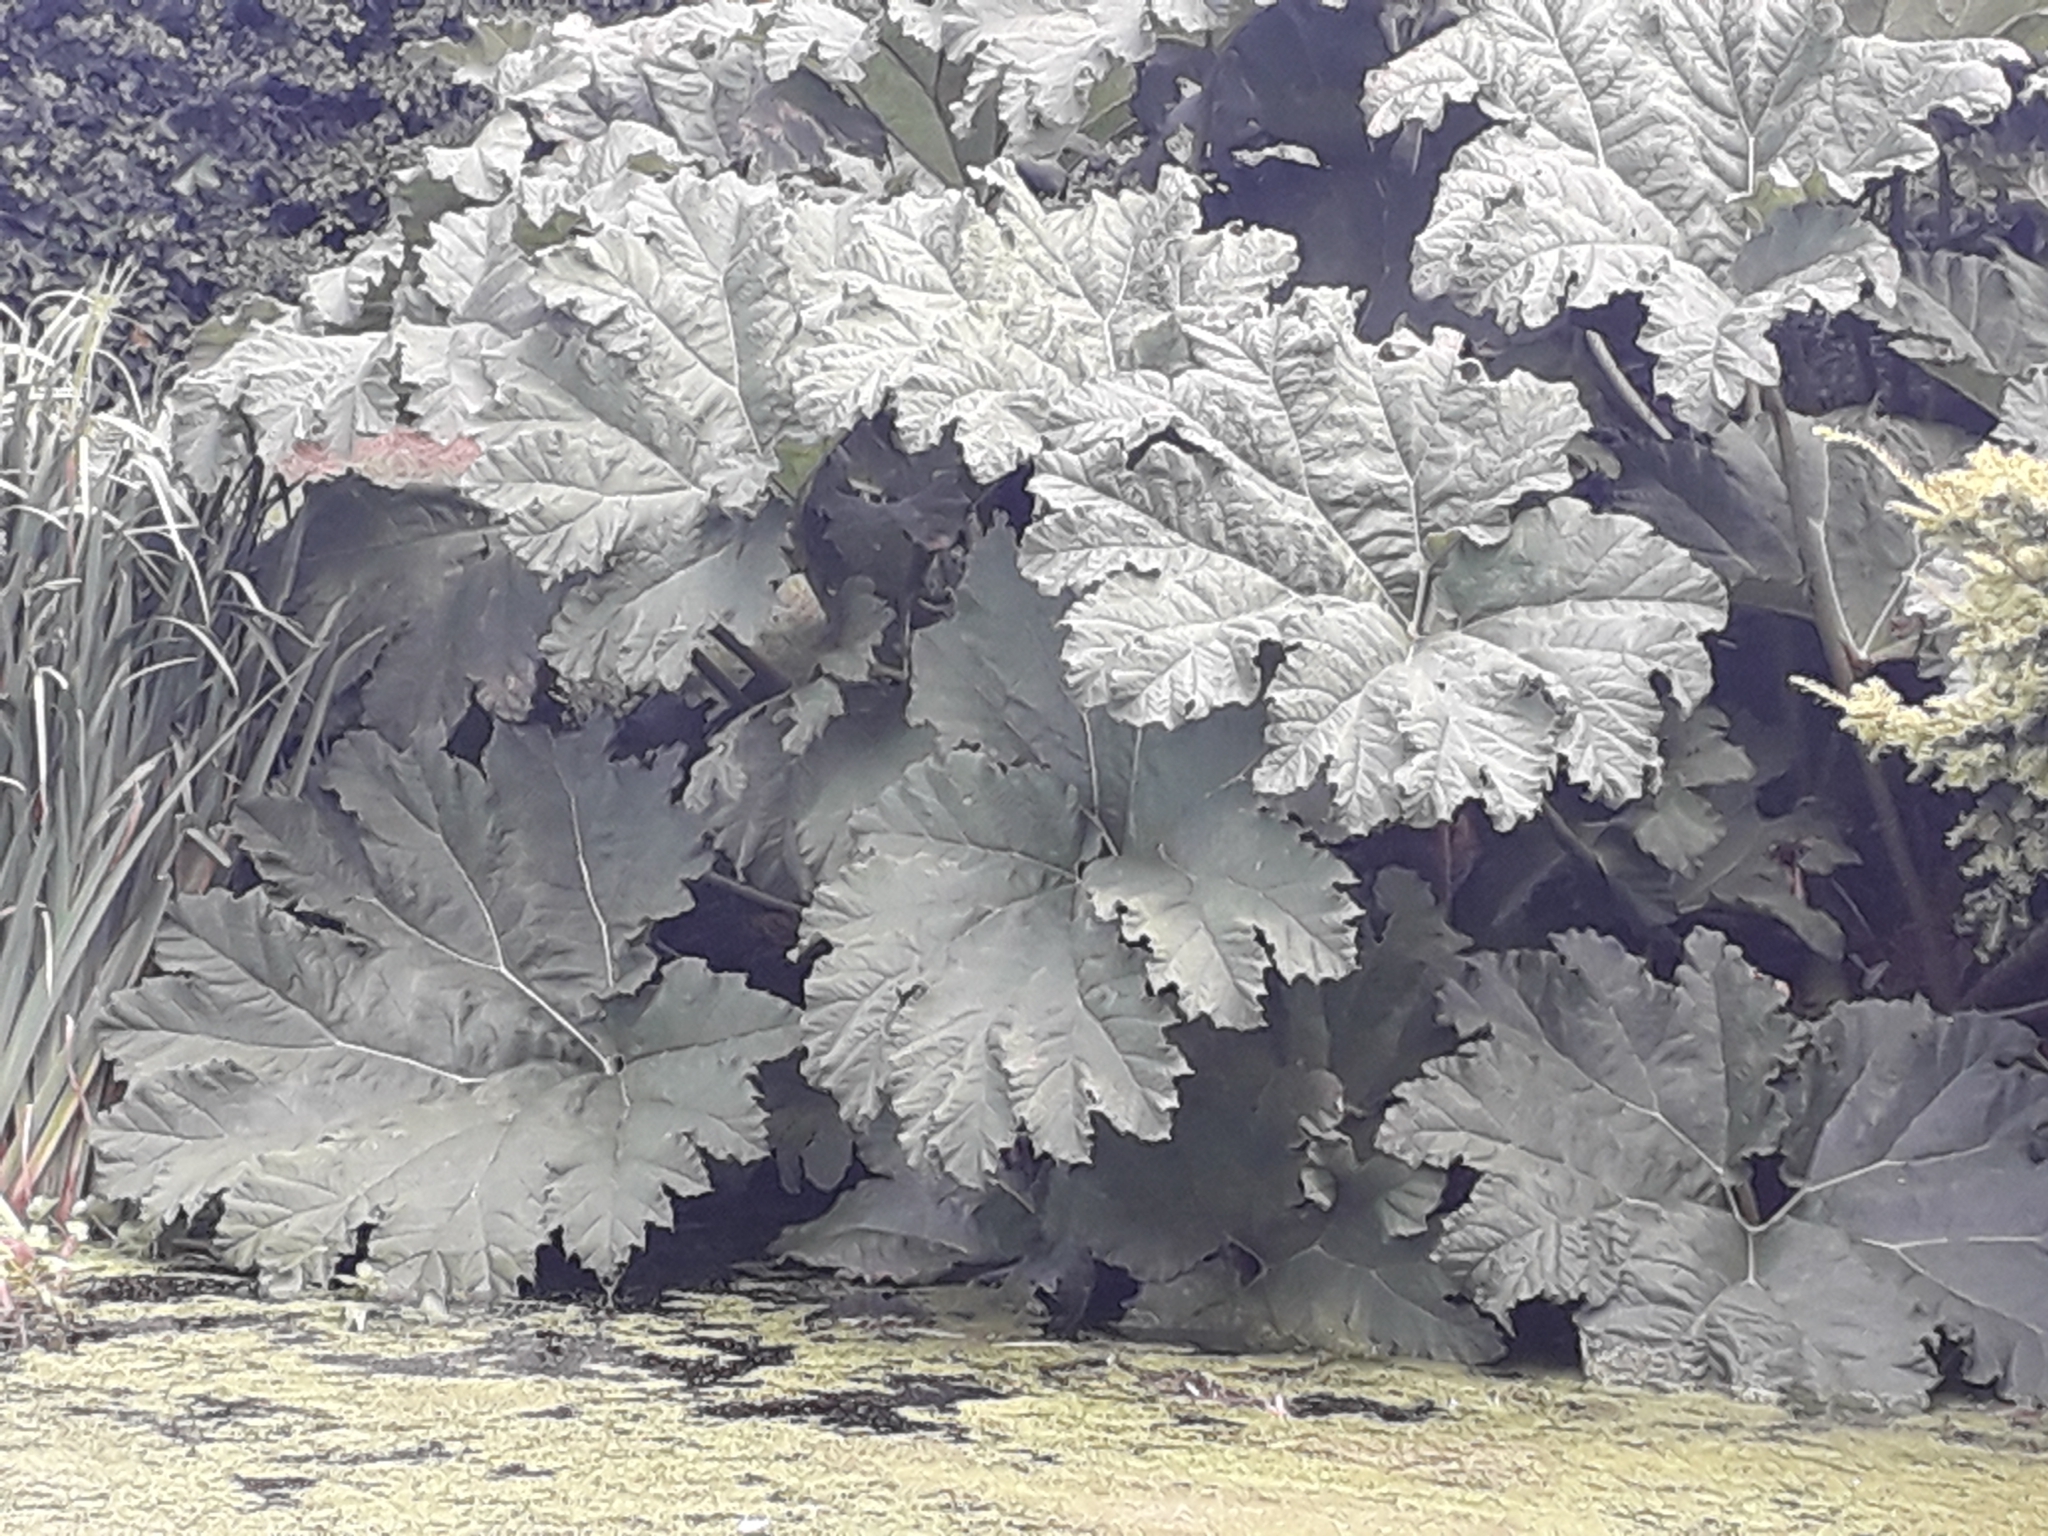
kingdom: Plantae
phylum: Tracheophyta
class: Magnoliopsida
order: Gunnerales
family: Gunneraceae
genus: Gunnera
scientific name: Gunnera tinctoria
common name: Giant-rhubarb
